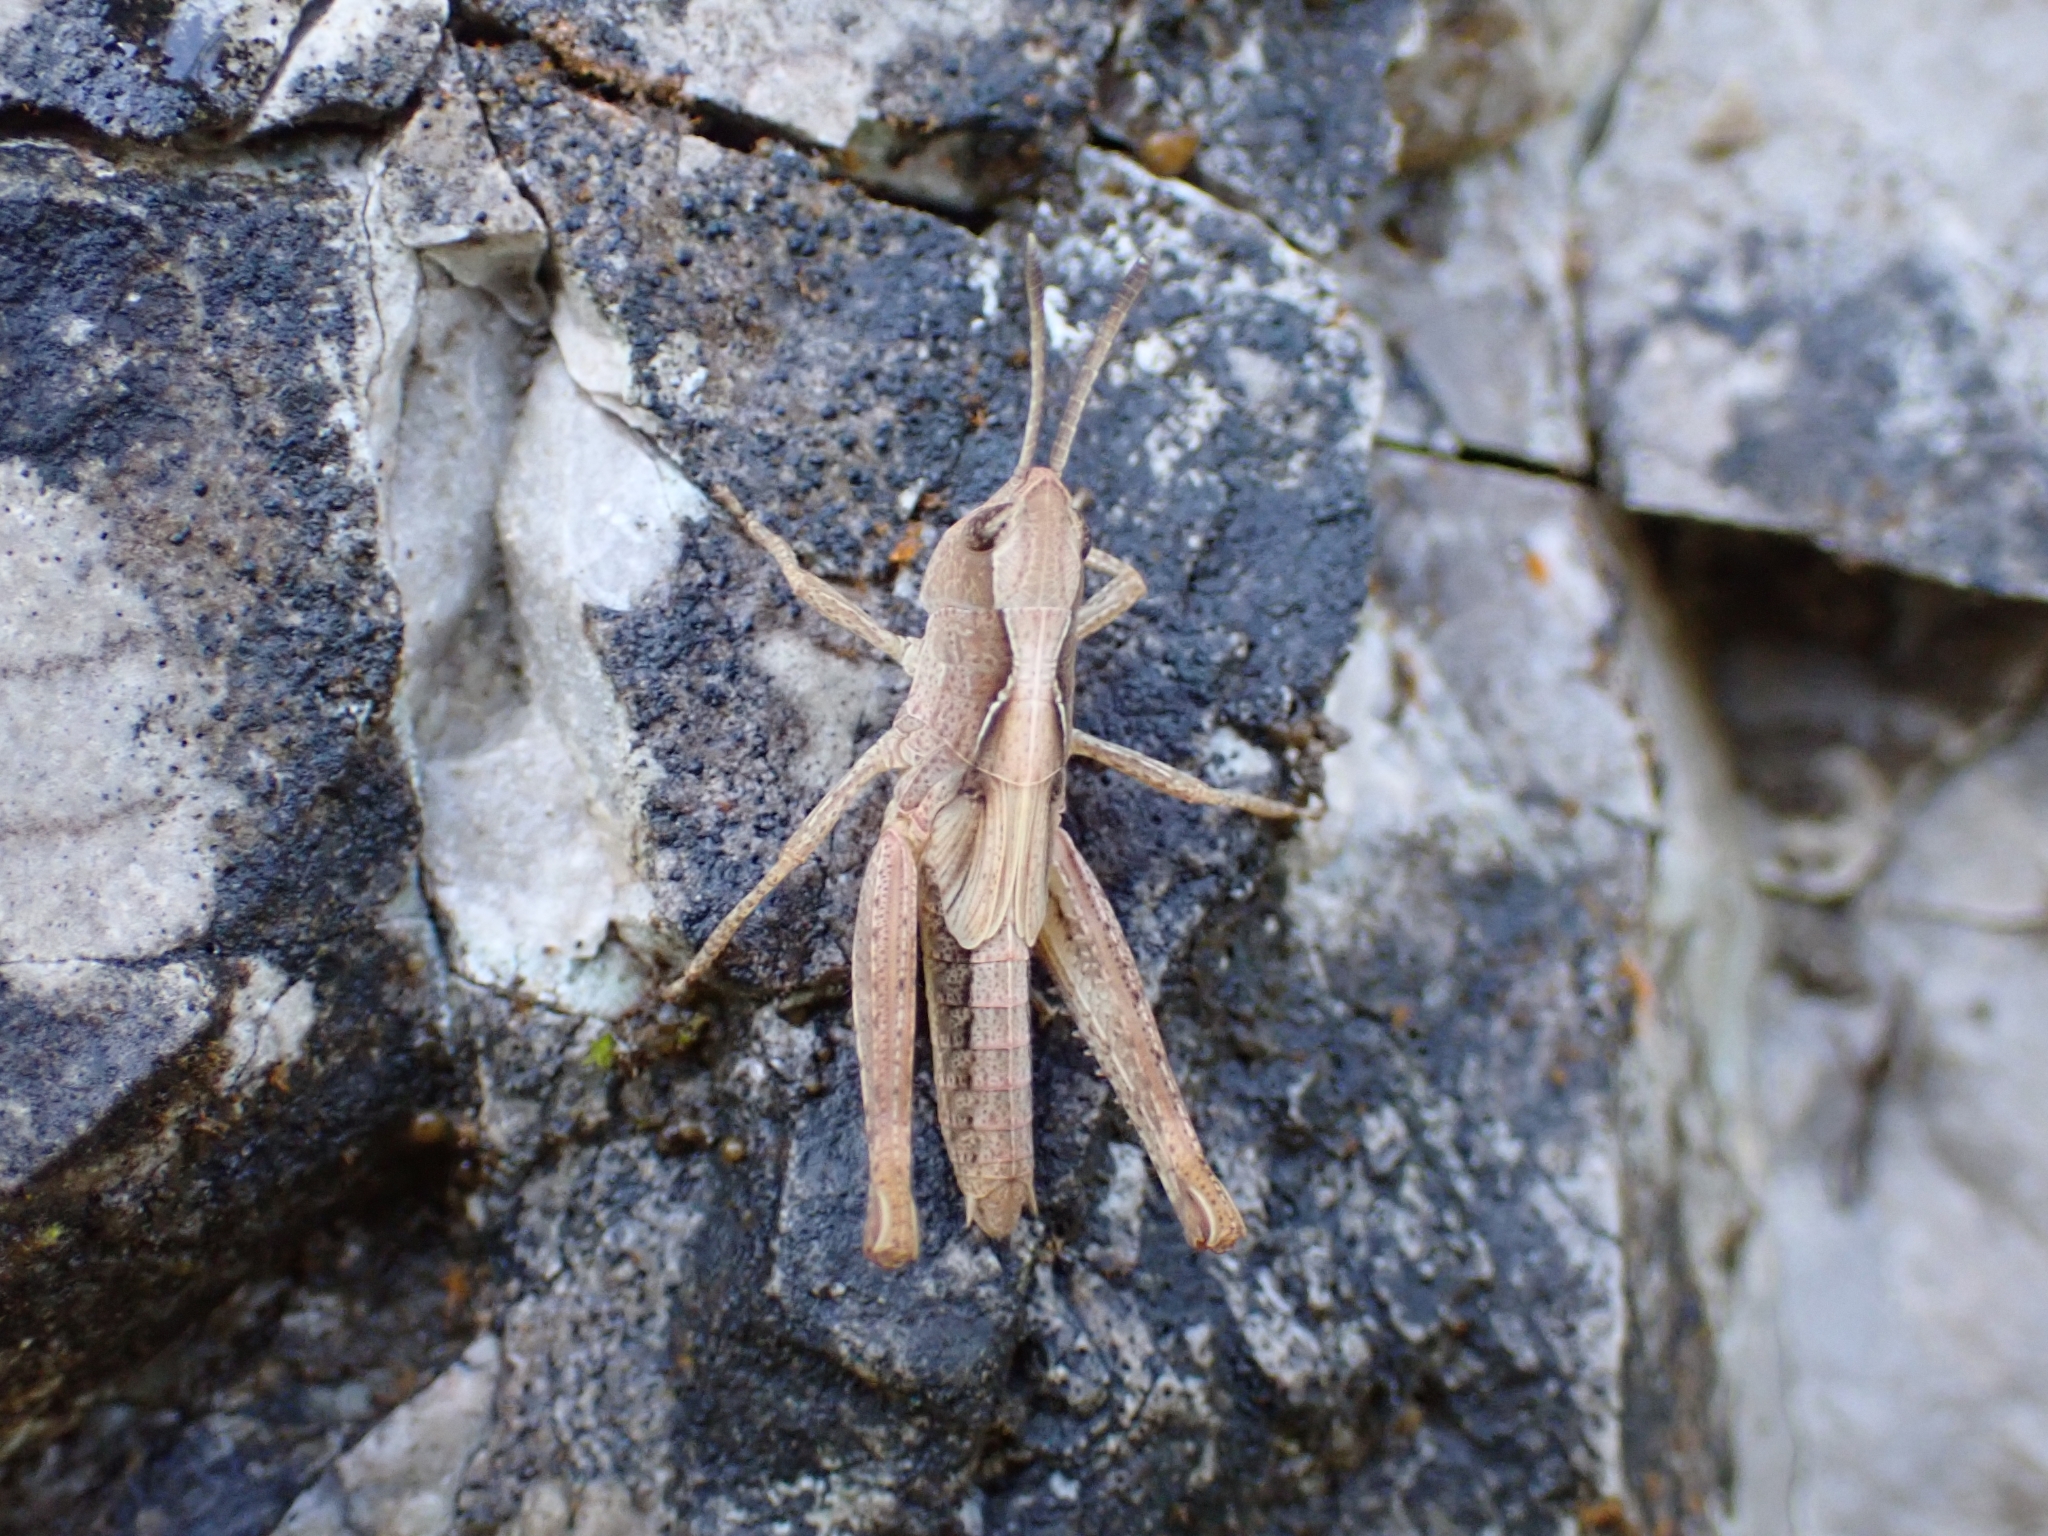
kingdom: Animalia
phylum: Arthropoda
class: Insecta
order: Orthoptera
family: Acrididae
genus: Gomphocerippus
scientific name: Gomphocerippus rufus
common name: Rufous grasshopper
